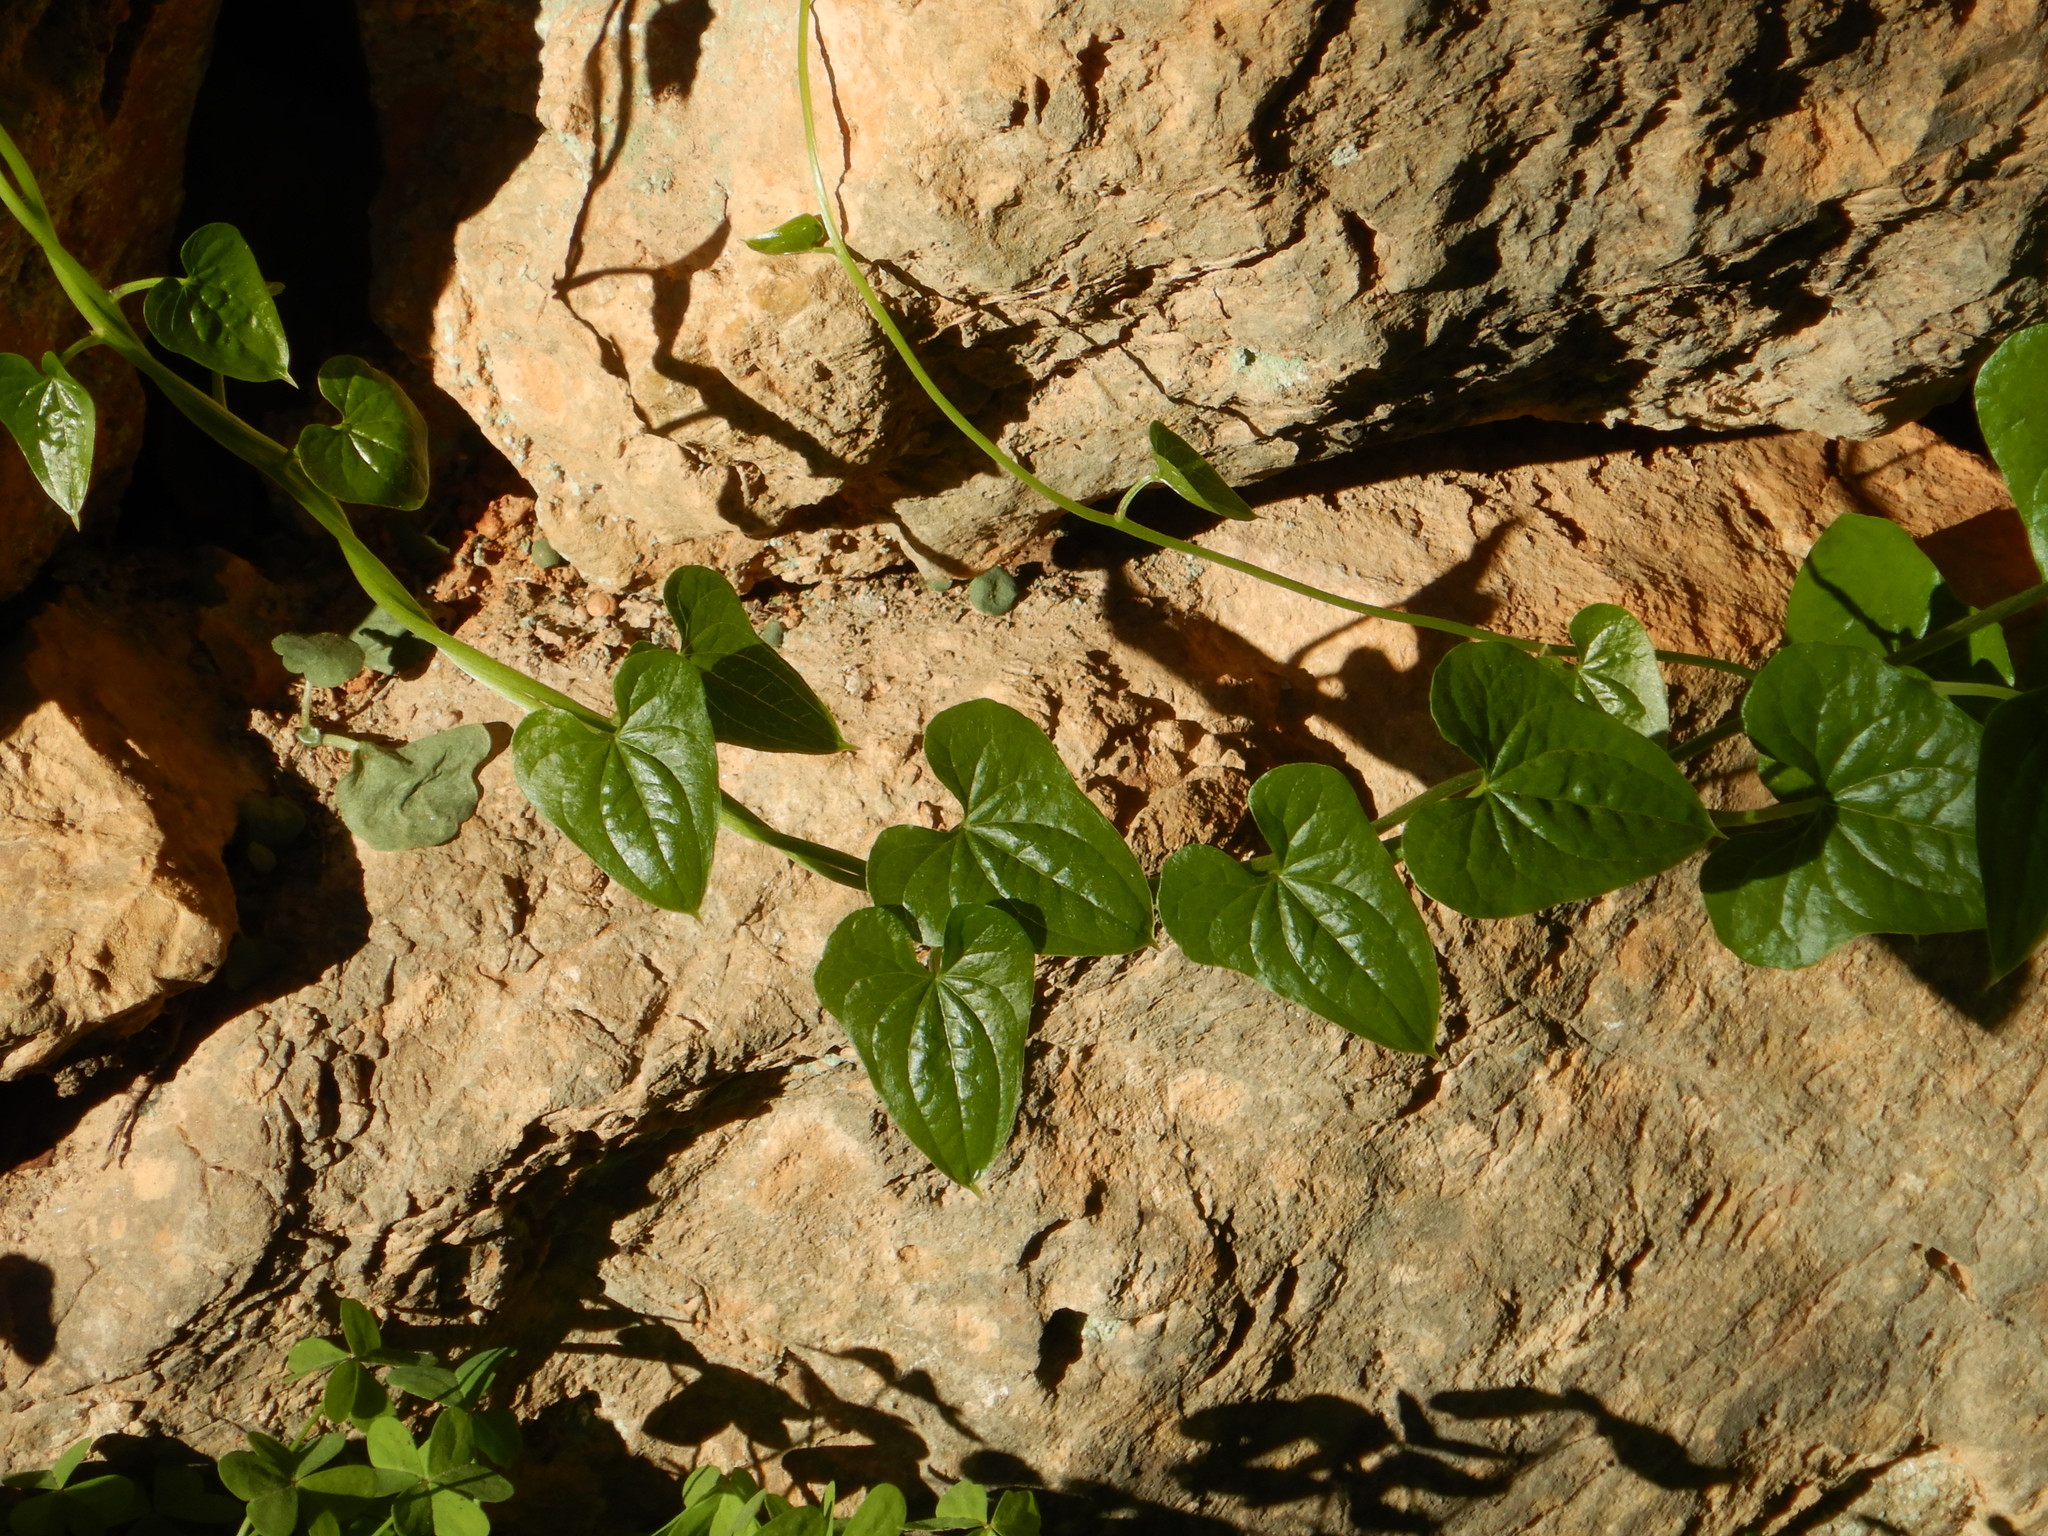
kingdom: Plantae
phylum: Tracheophyta
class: Liliopsida
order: Dioscoreales
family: Dioscoreaceae
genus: Dioscorea
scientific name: Dioscorea communis
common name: Black-bindweed
